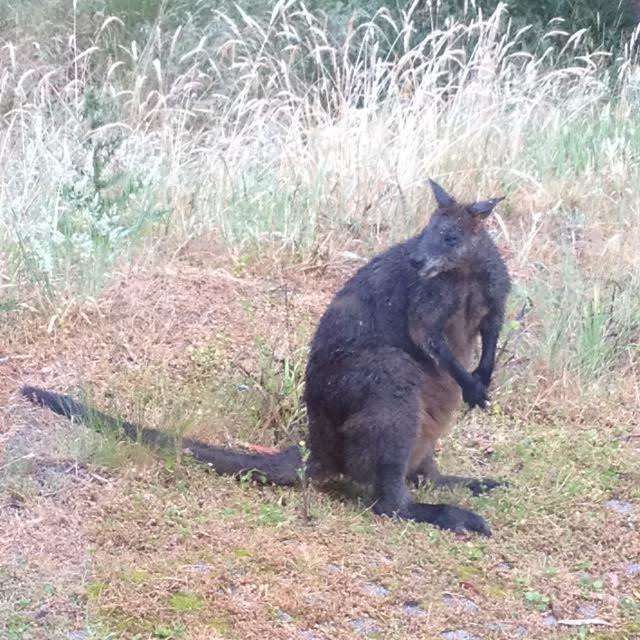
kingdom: Animalia
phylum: Chordata
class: Mammalia
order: Diprotodontia
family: Macropodidae
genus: Wallabia
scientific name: Wallabia bicolor
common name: Swamp wallaby
